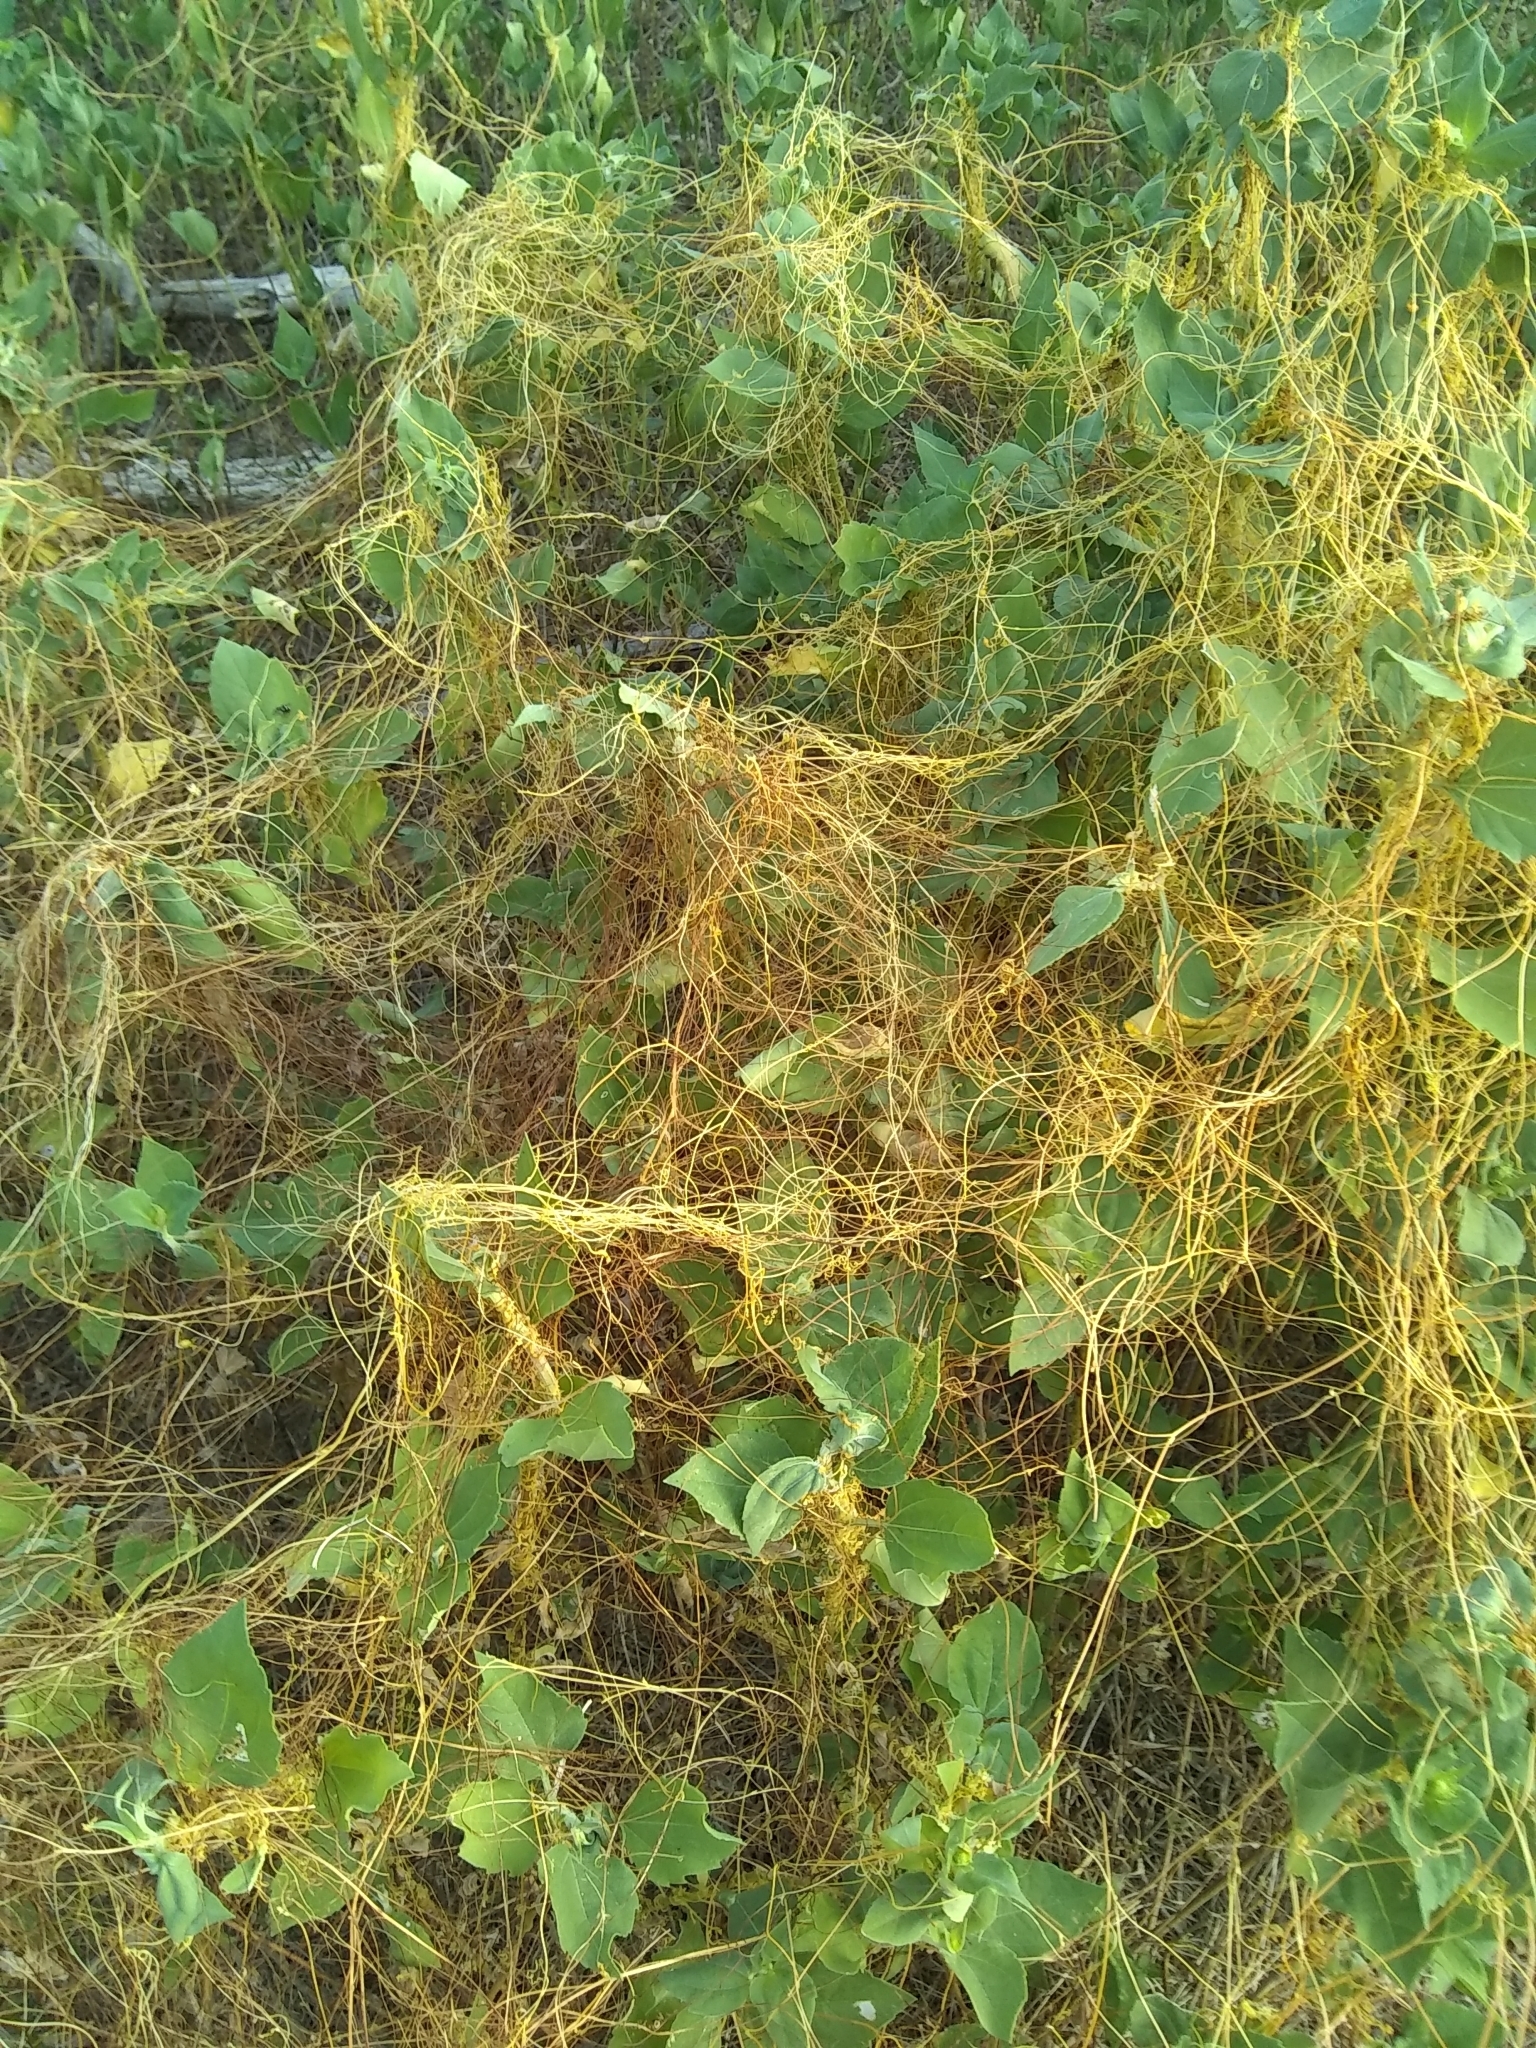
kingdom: Plantae
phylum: Tracheophyta
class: Magnoliopsida
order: Solanales
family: Convolvulaceae
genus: Cuscuta
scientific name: Cuscuta
